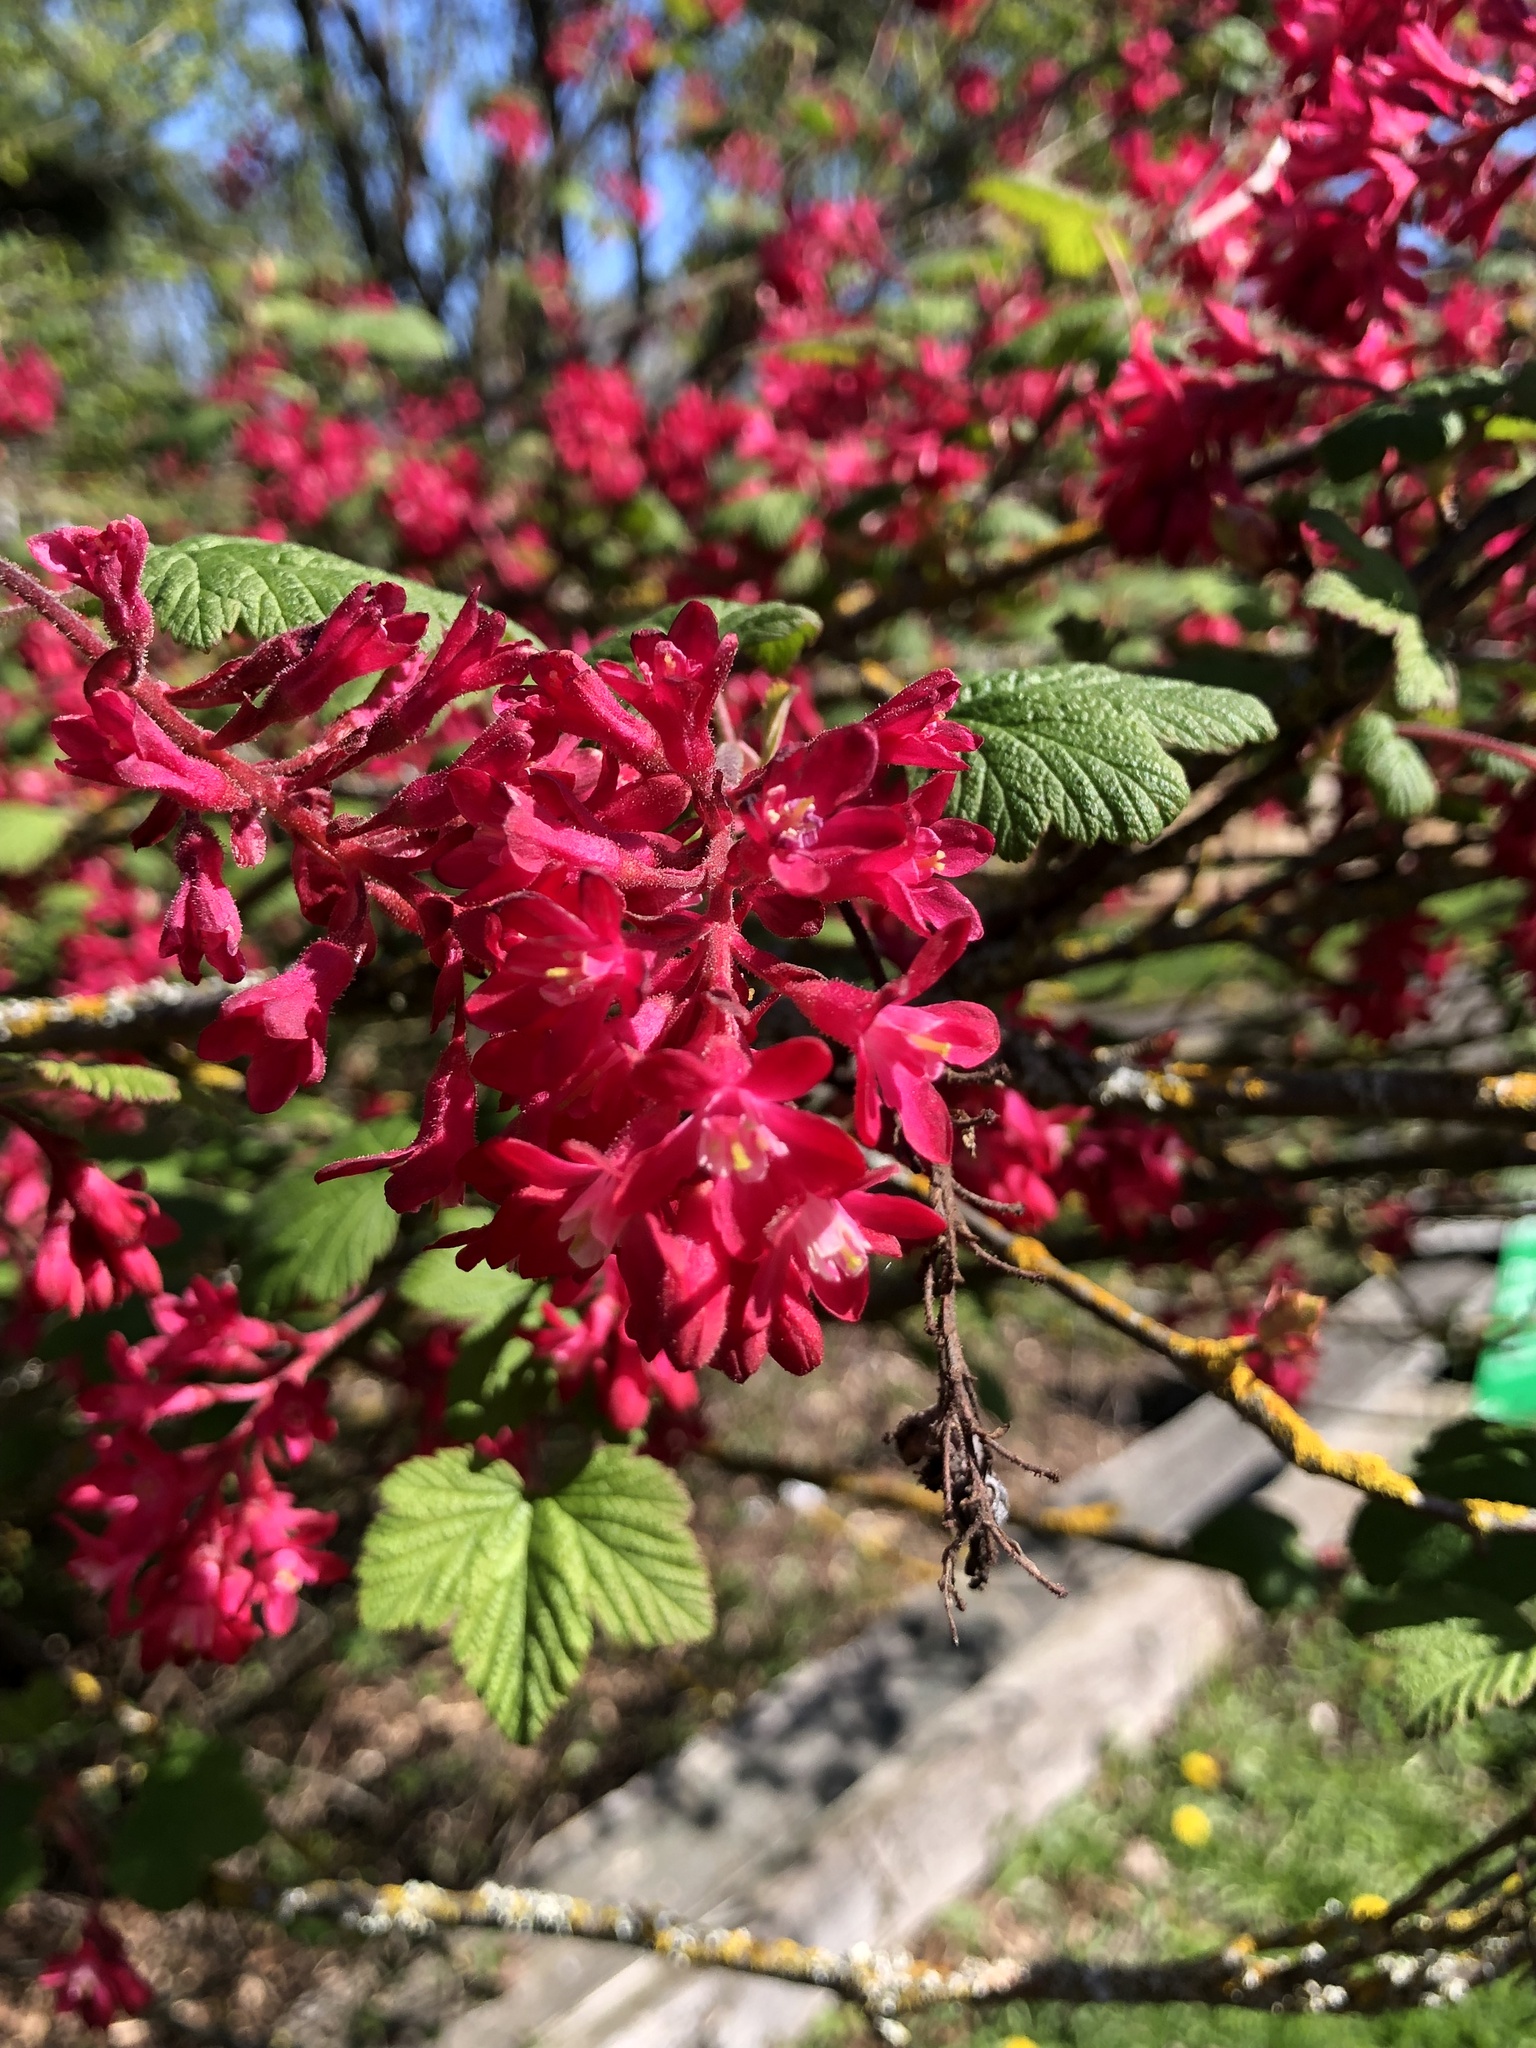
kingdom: Plantae
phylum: Tracheophyta
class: Magnoliopsida
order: Saxifragales
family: Grossulariaceae
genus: Ribes
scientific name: Ribes sanguineum
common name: Flowering currant
